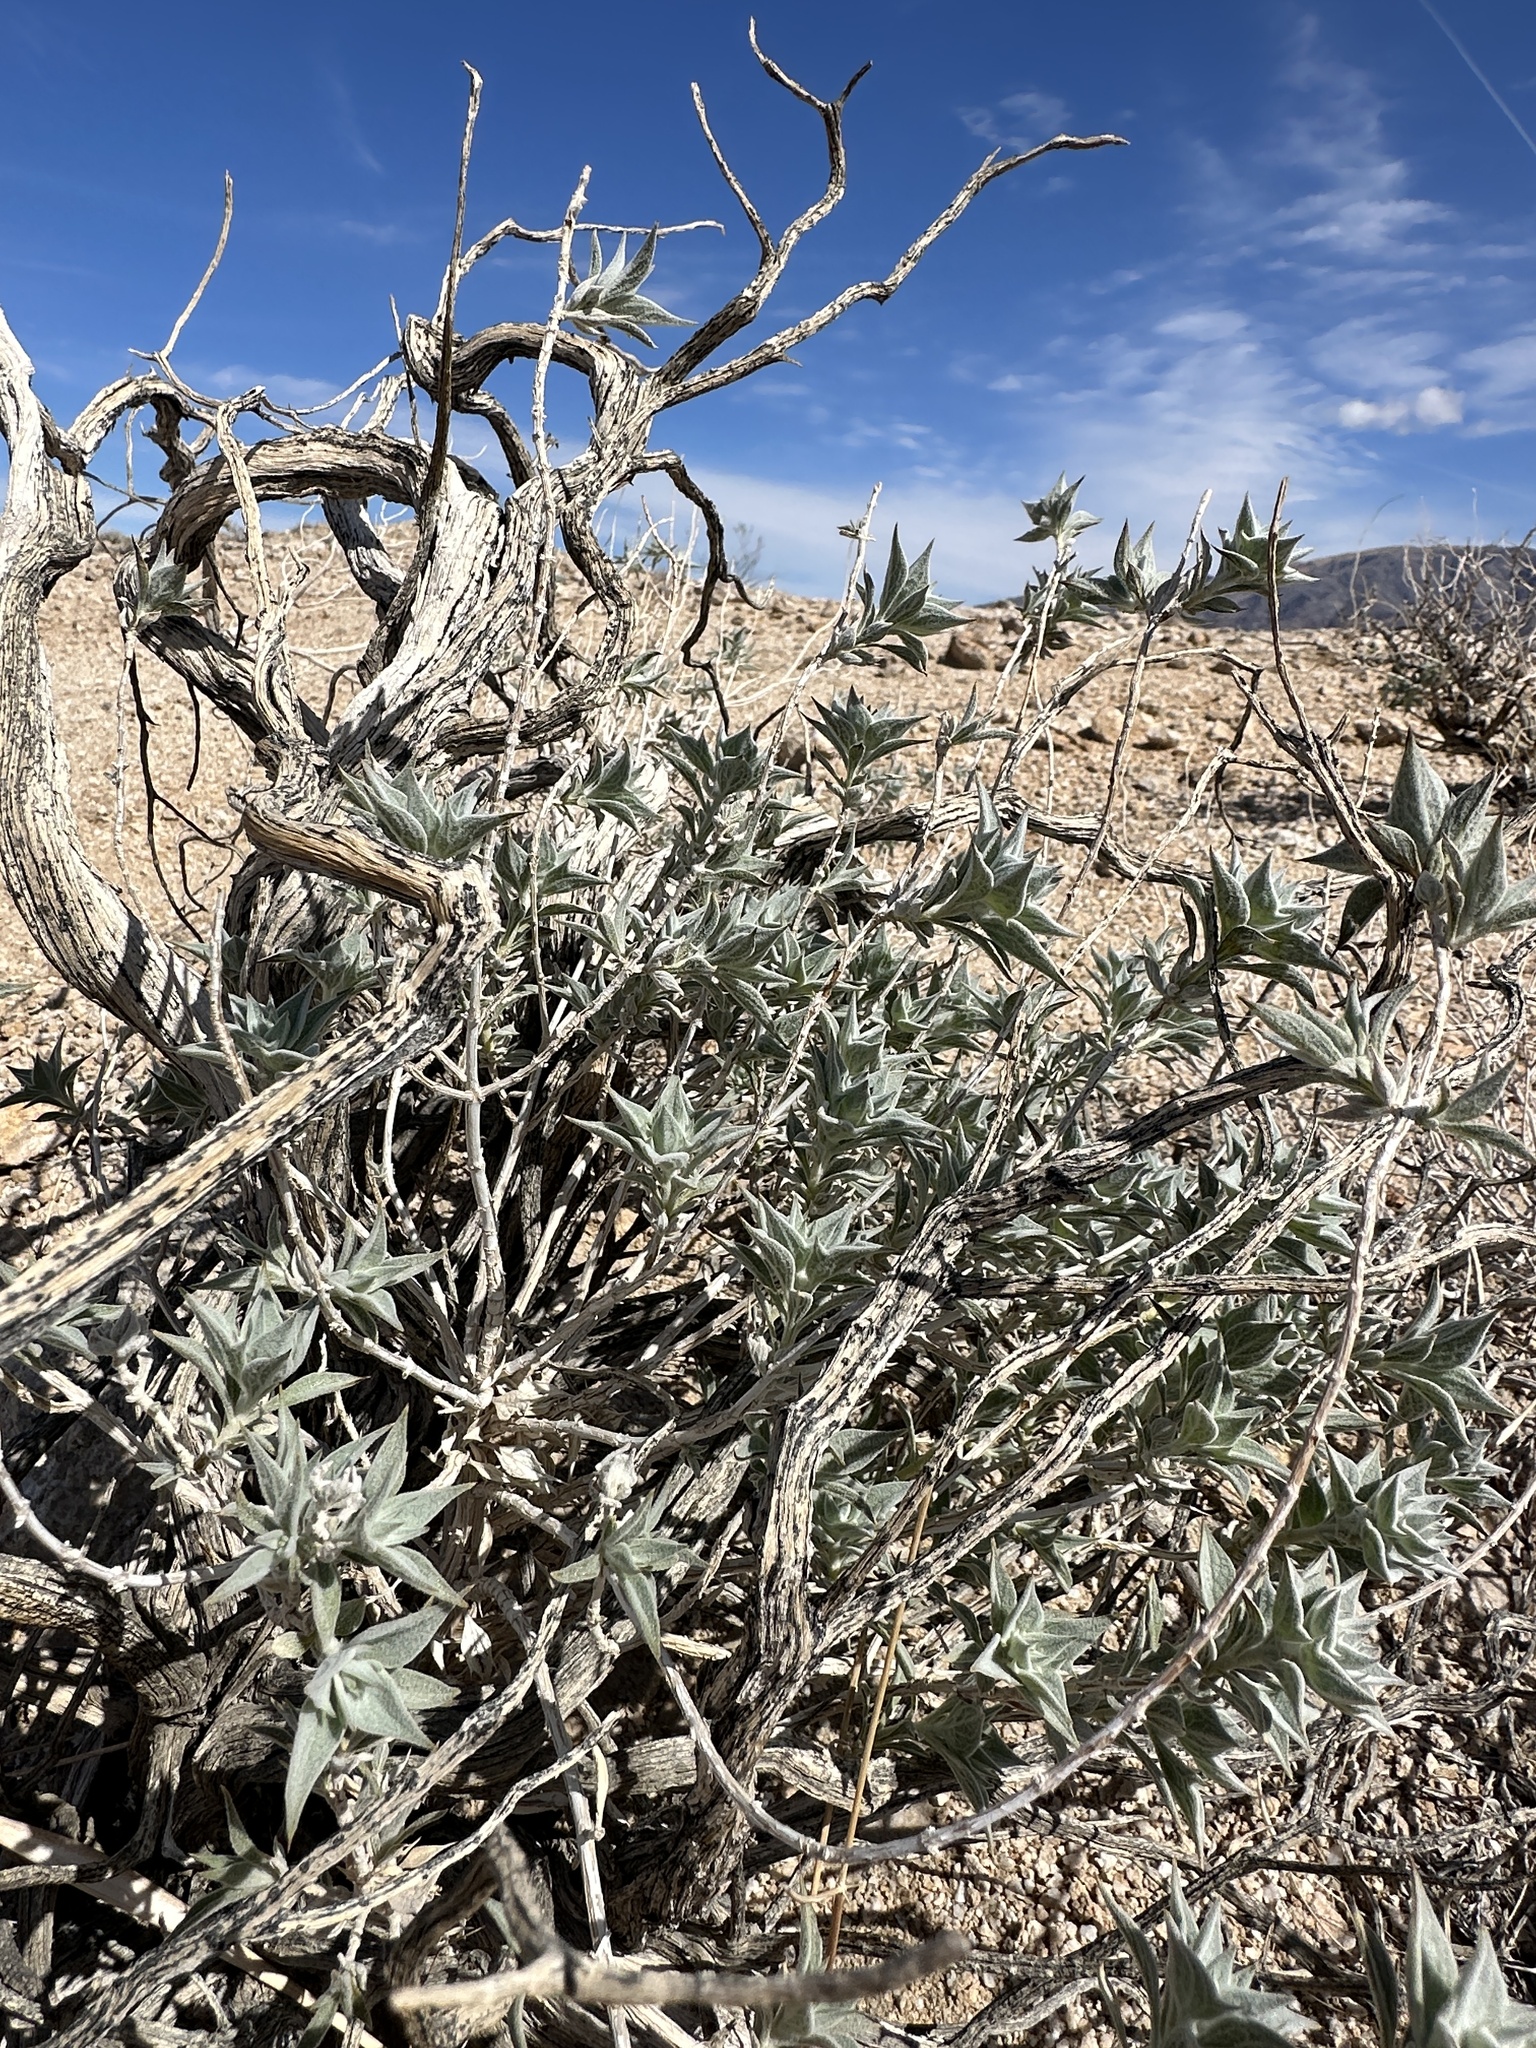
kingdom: Plantae
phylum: Tracheophyta
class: Magnoliopsida
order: Lamiales
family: Lamiaceae
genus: Salvia
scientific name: Salvia funerea
